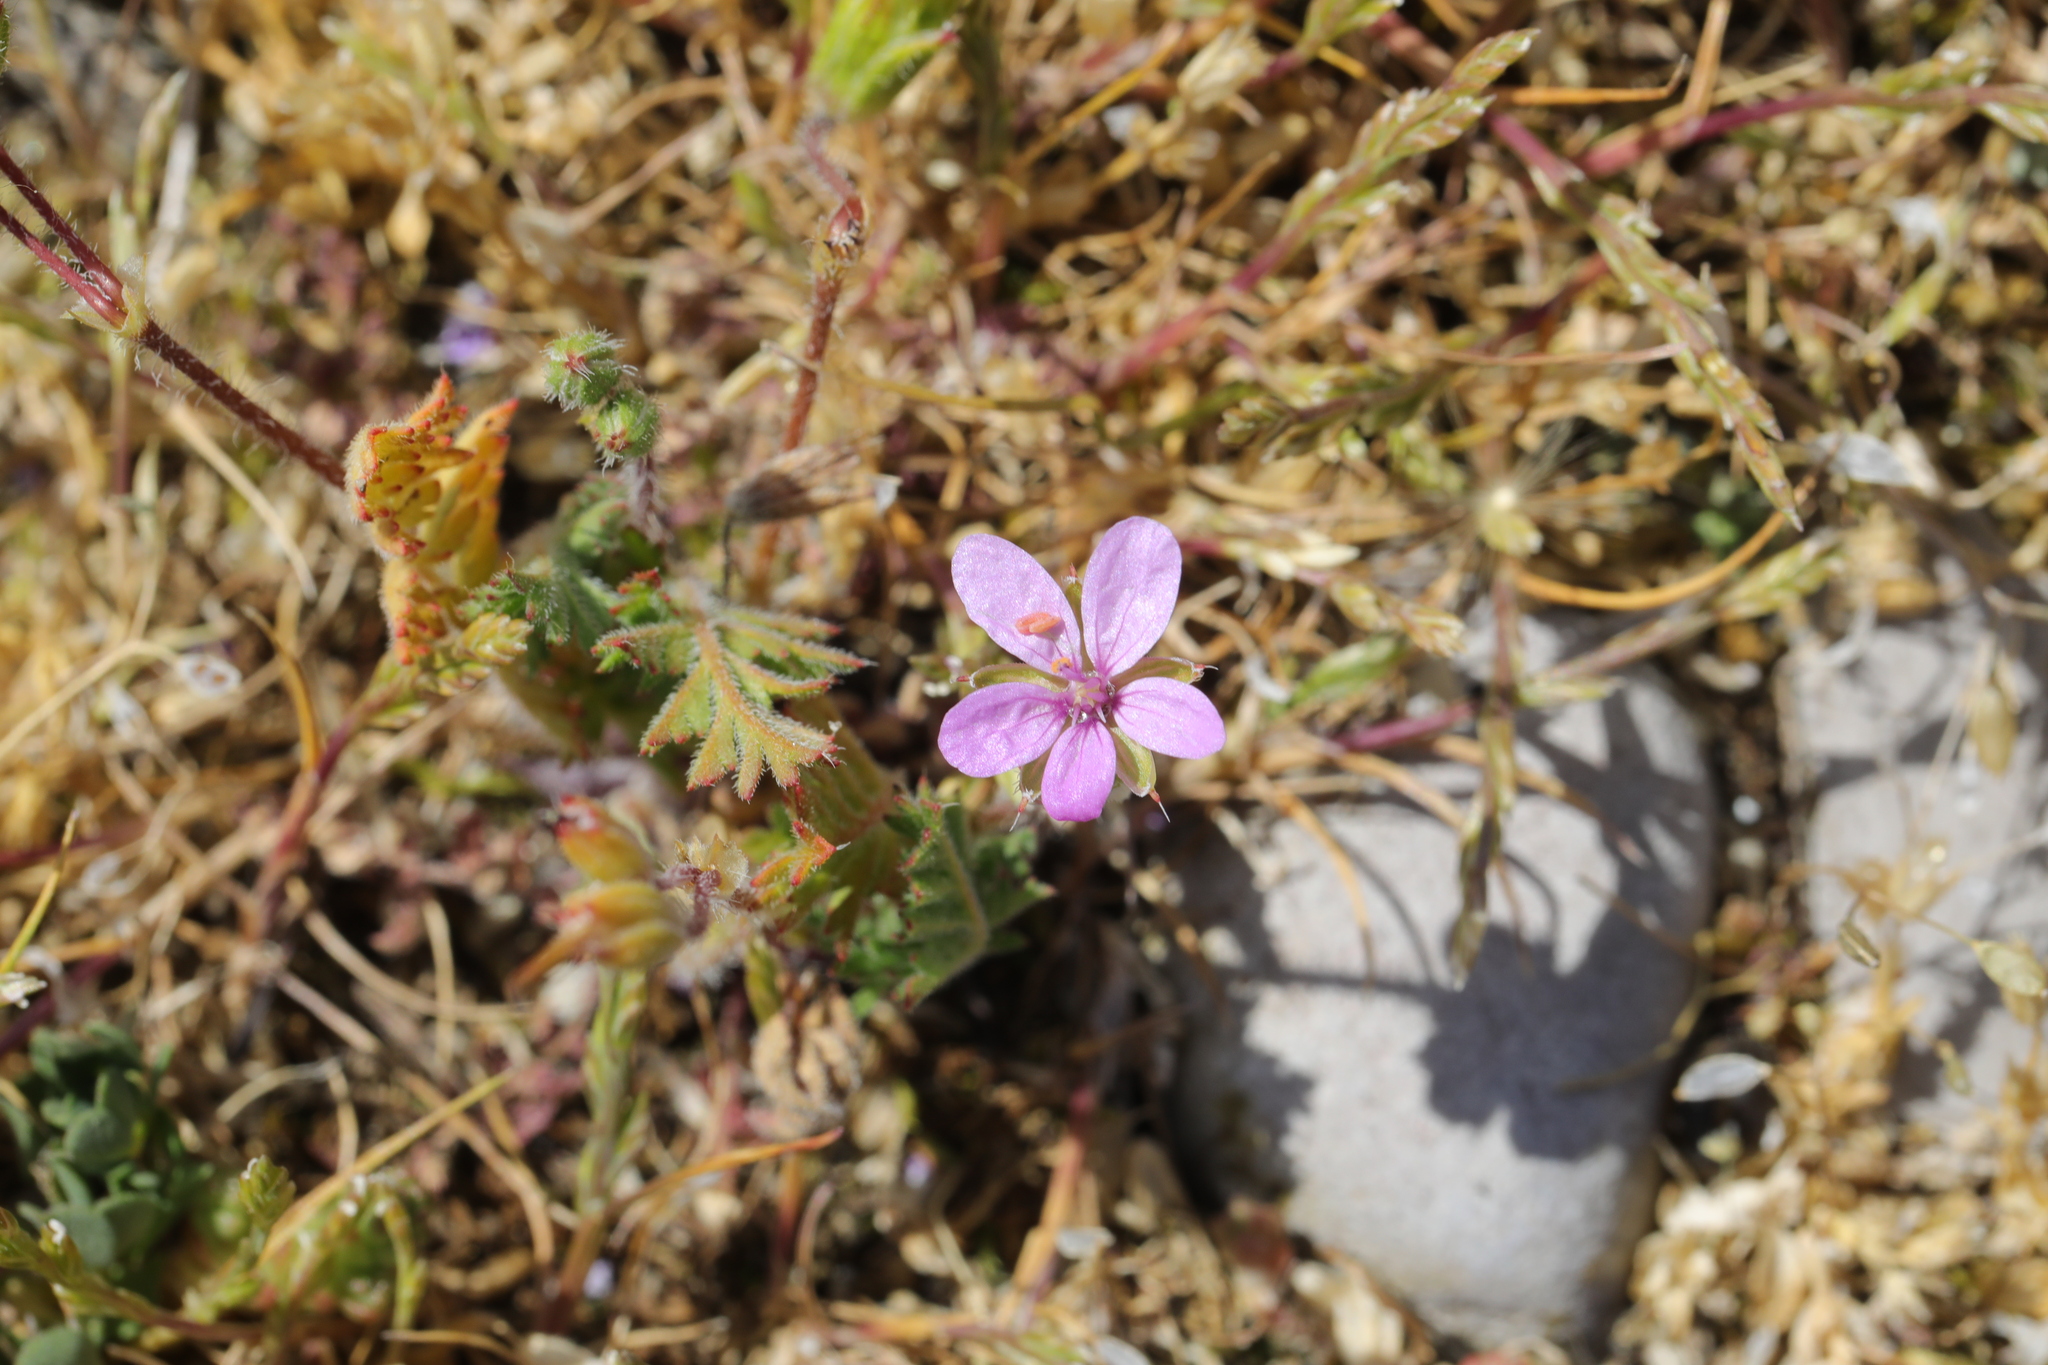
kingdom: Plantae
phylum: Tracheophyta
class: Magnoliopsida
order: Geraniales
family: Geraniaceae
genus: Erodium
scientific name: Erodium cicutarium
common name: Common stork's-bill
